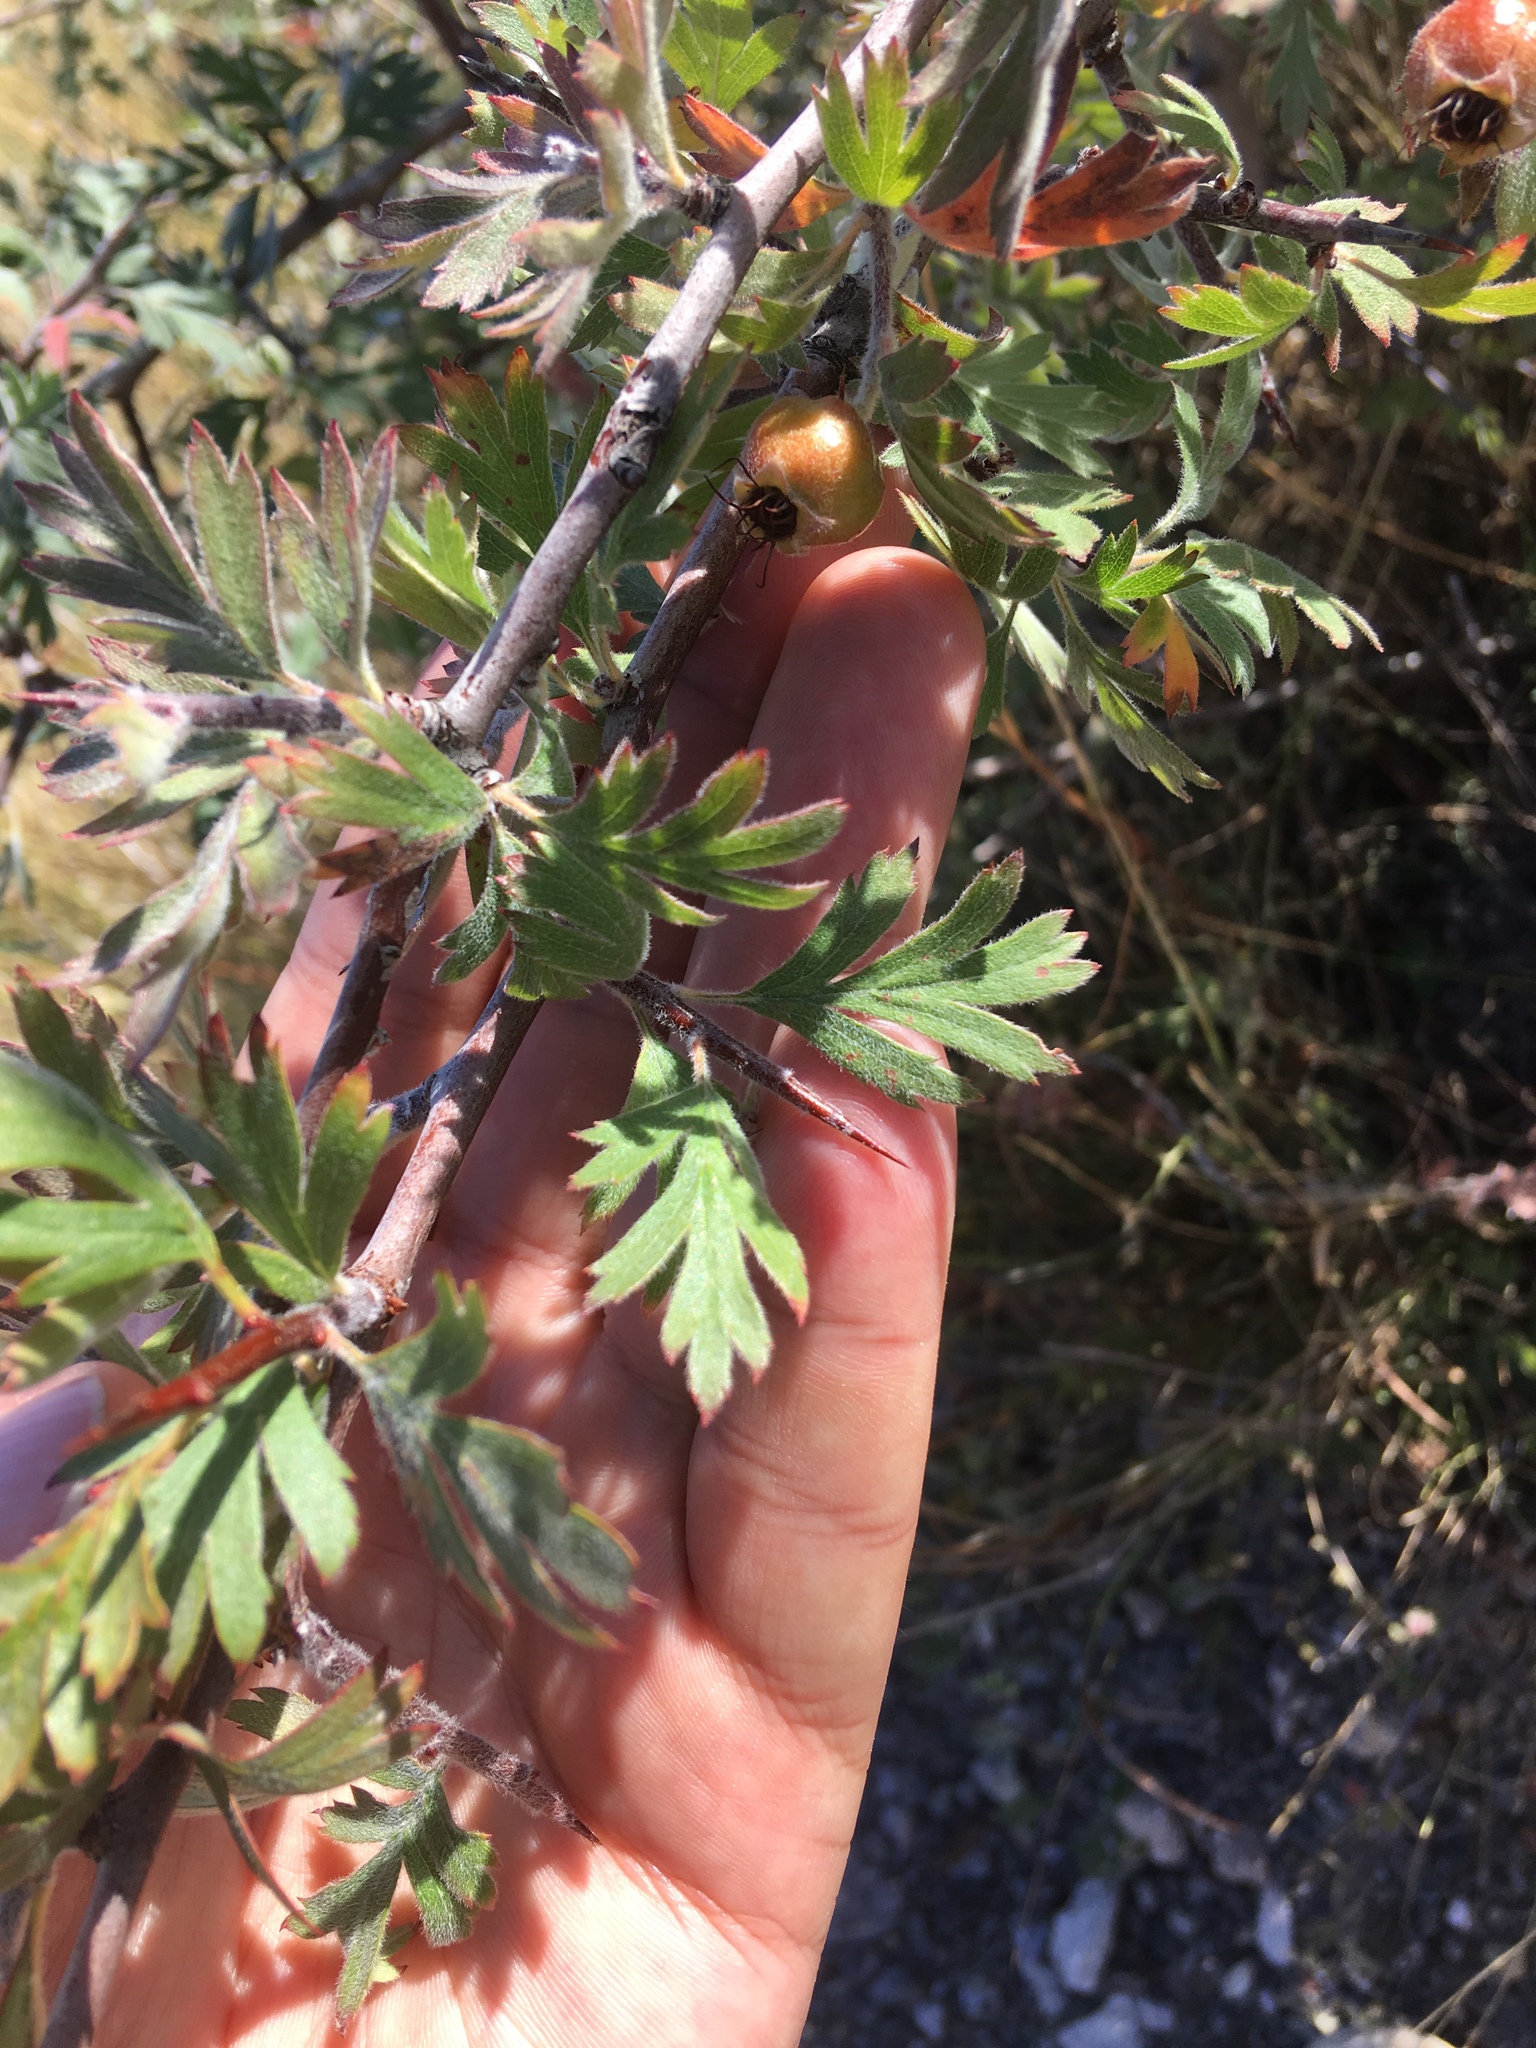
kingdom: Plantae
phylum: Tracheophyta
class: Magnoliopsida
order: Rosales
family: Rosaceae
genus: Crataegus
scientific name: Crataegus orientalis
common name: Oriental hawthorn
